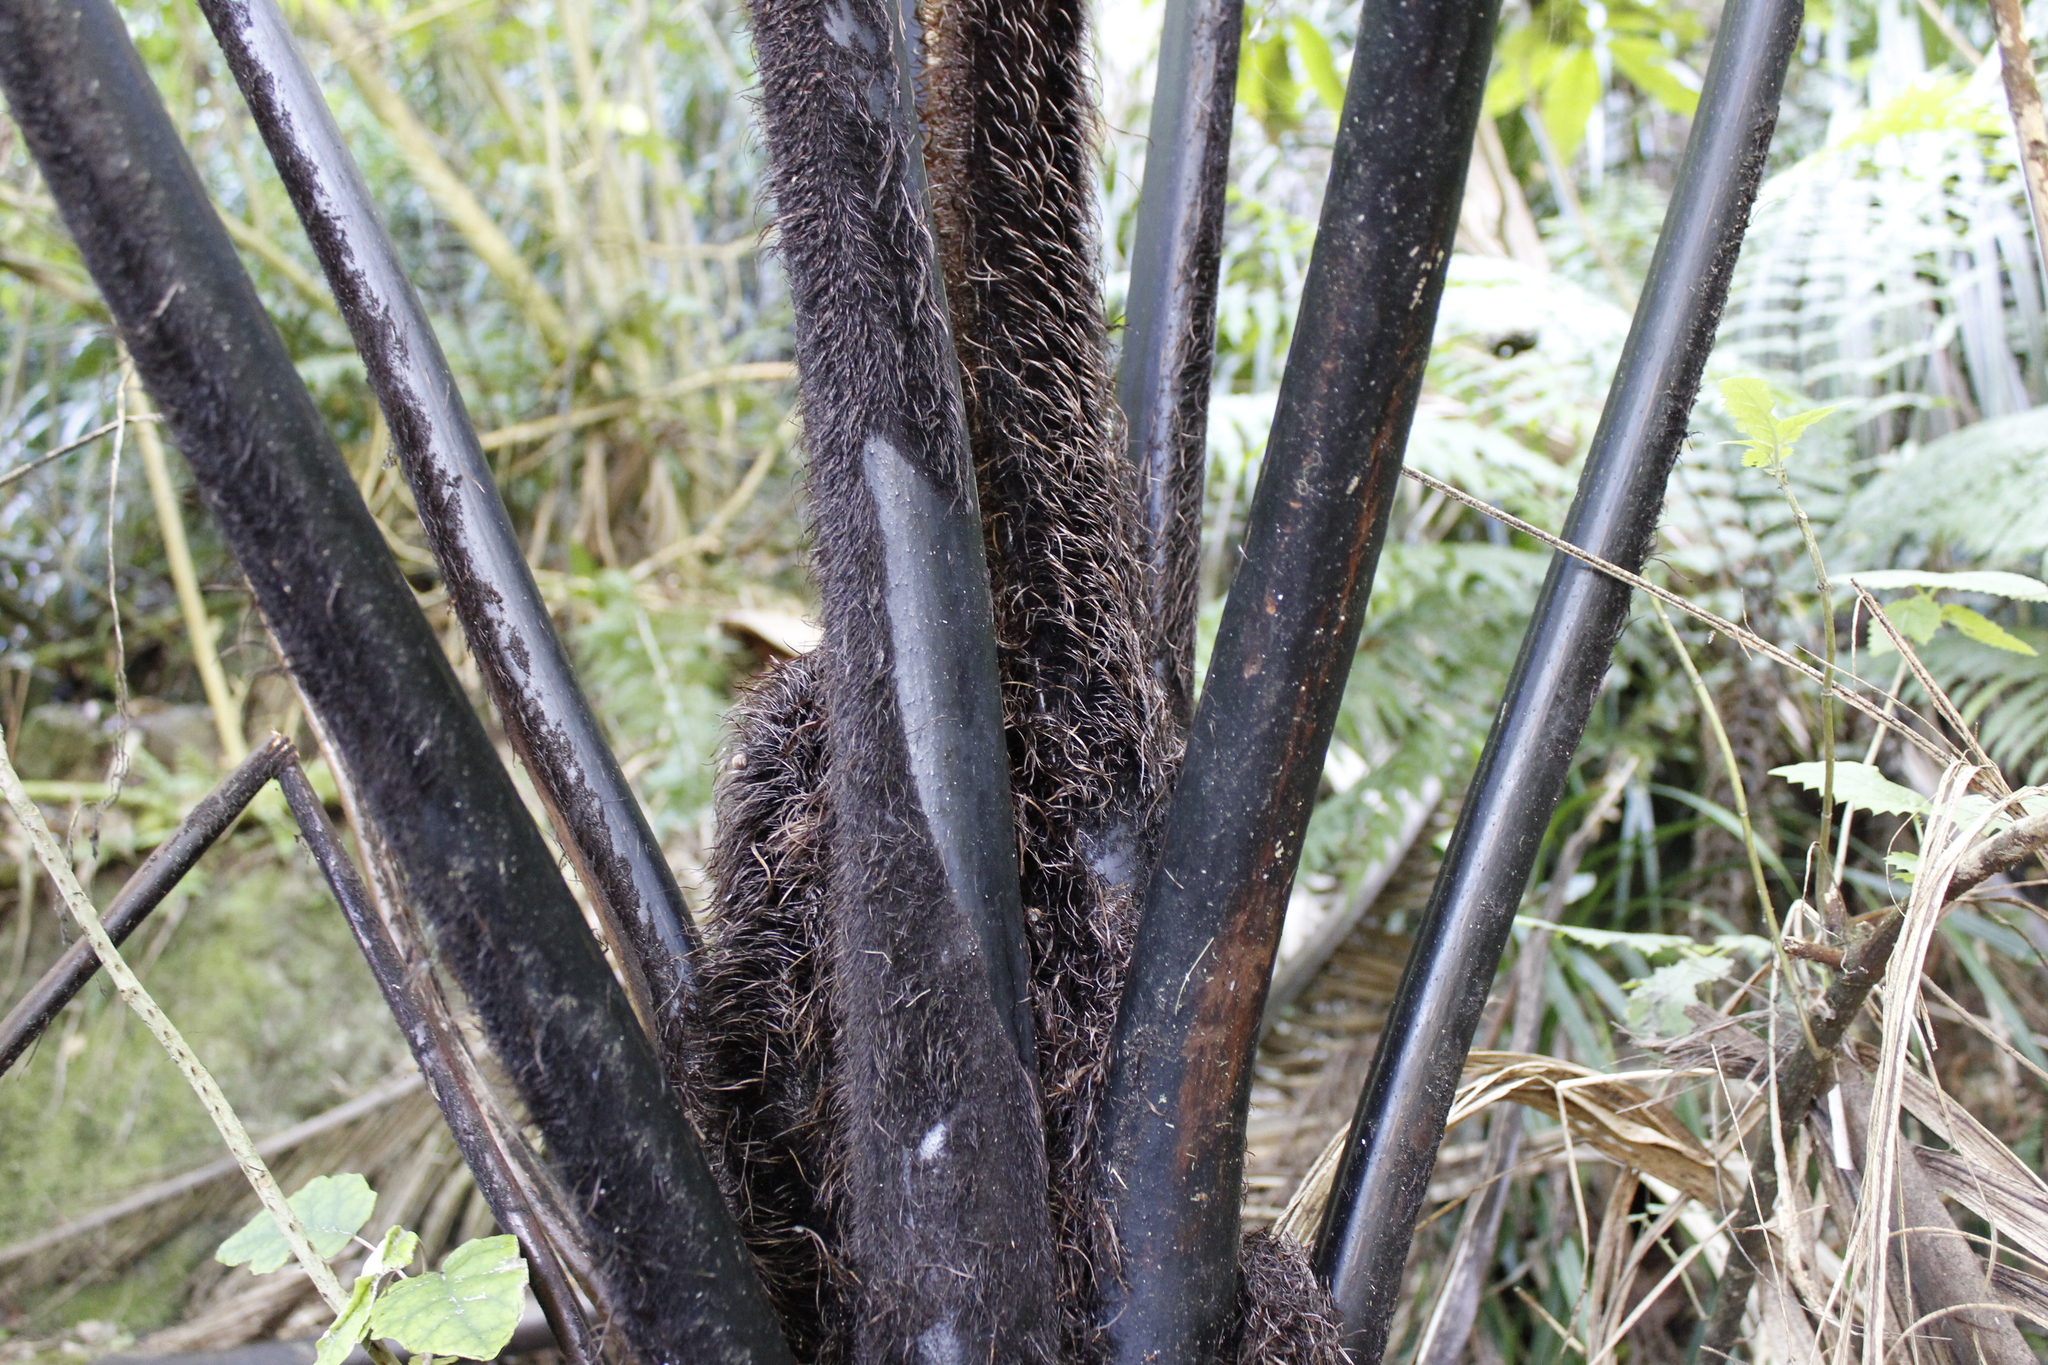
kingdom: Plantae
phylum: Tracheophyta
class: Polypodiopsida
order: Cyatheales
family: Cyatheaceae
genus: Sphaeropteris
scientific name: Sphaeropteris medullaris
